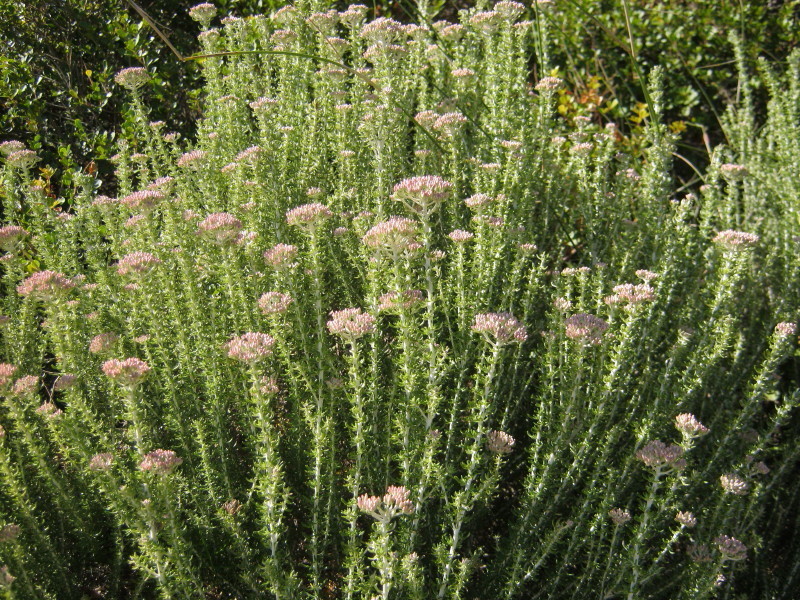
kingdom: Plantae
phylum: Tracheophyta
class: Magnoliopsida
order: Asterales
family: Asteraceae
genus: Metalasia
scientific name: Metalasia muricata
